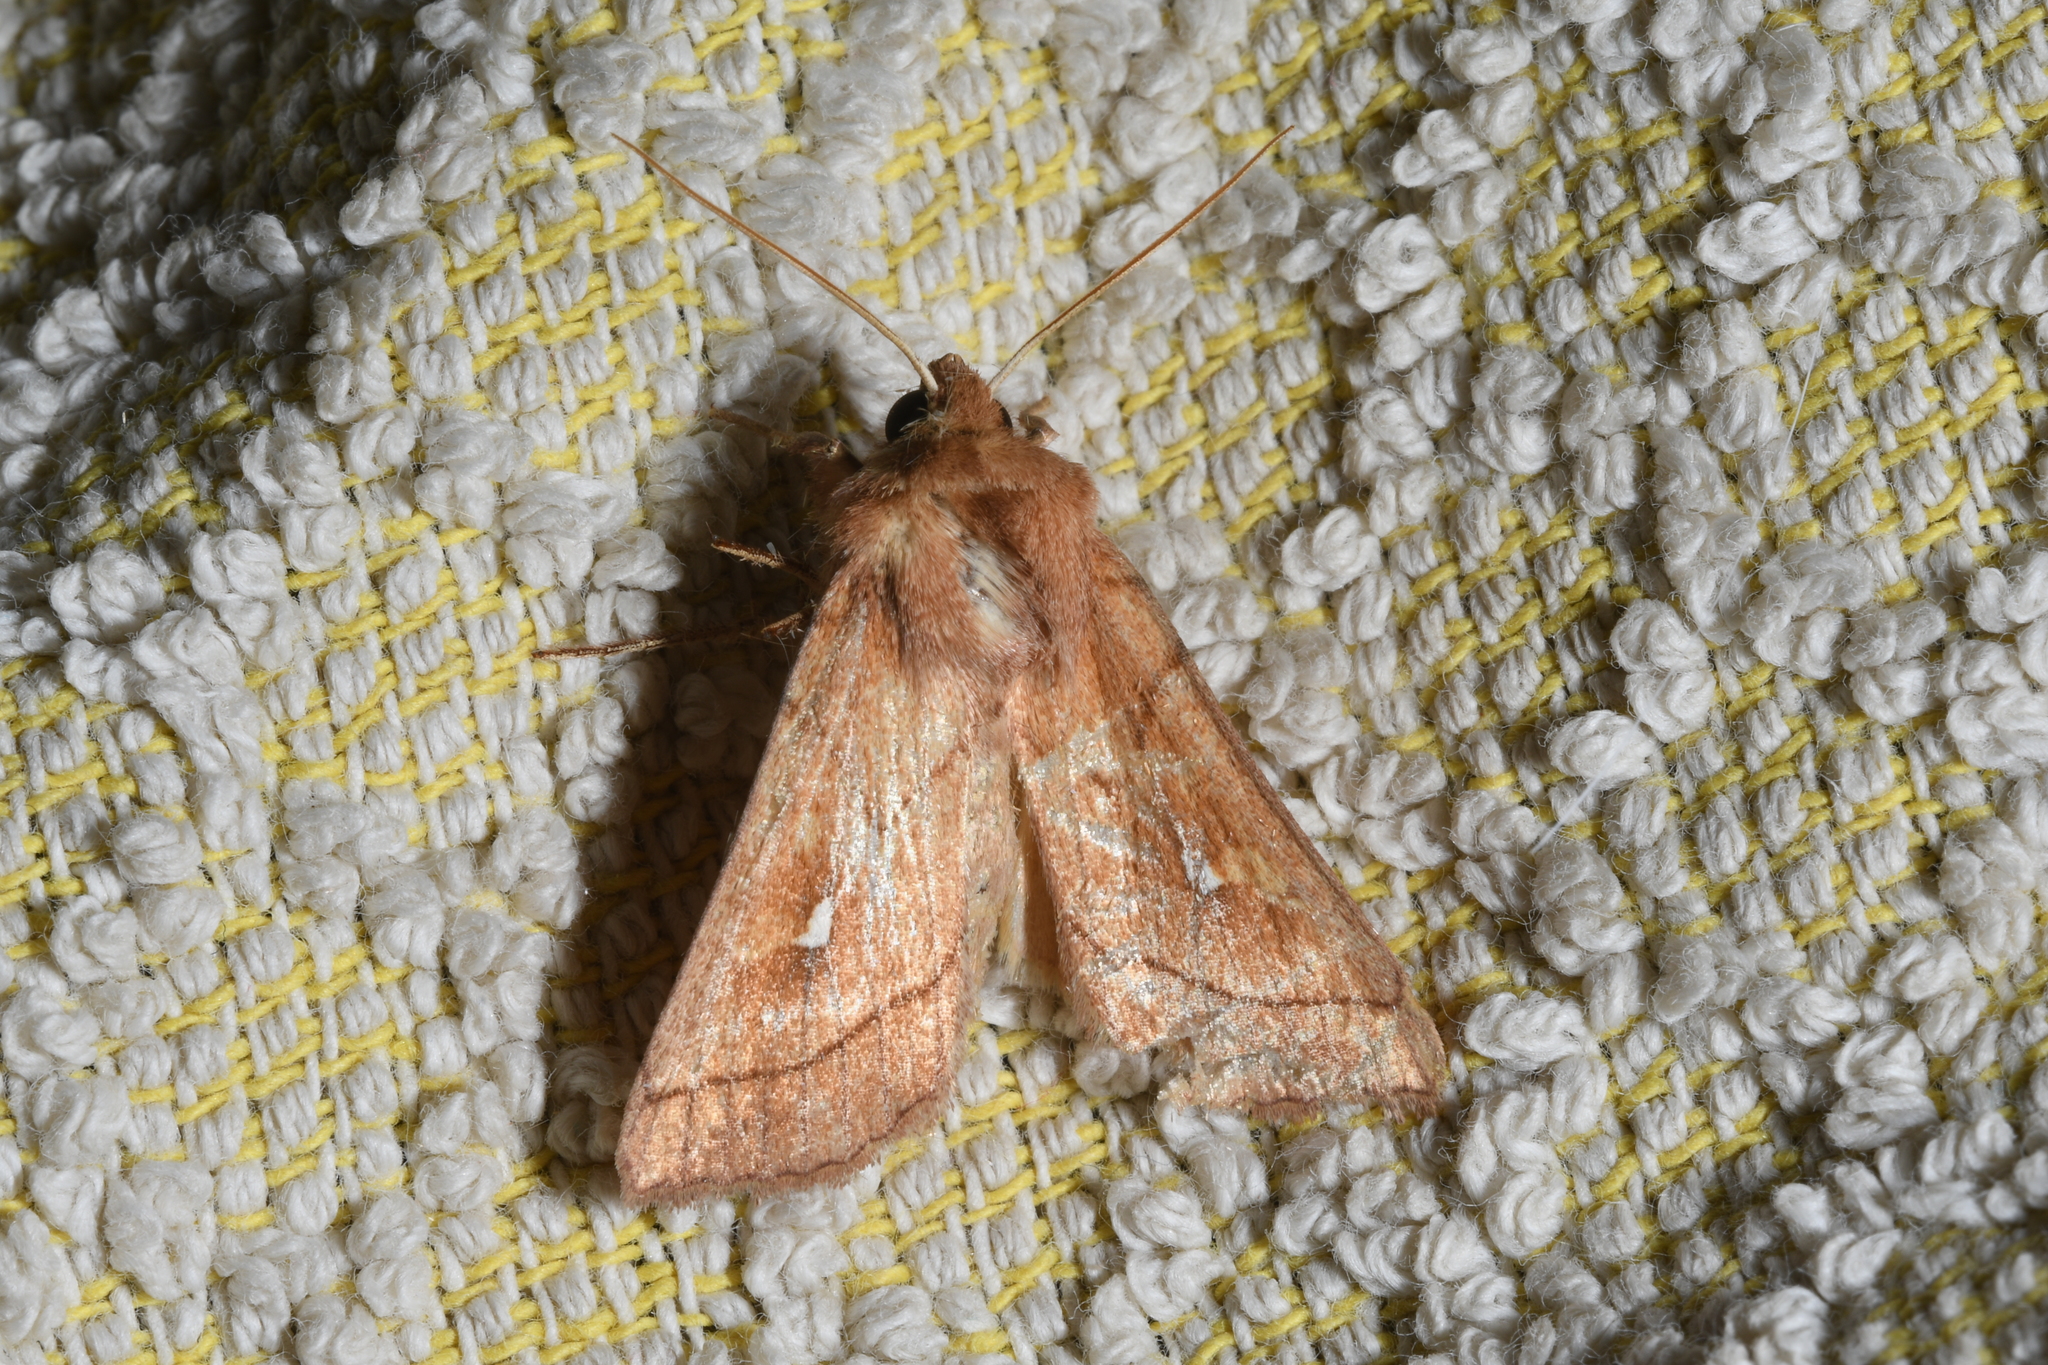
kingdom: Animalia
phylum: Arthropoda
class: Insecta
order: Lepidoptera
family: Noctuidae
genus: Mythimna
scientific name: Mythimna conigera
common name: Brown-line bright-eye
